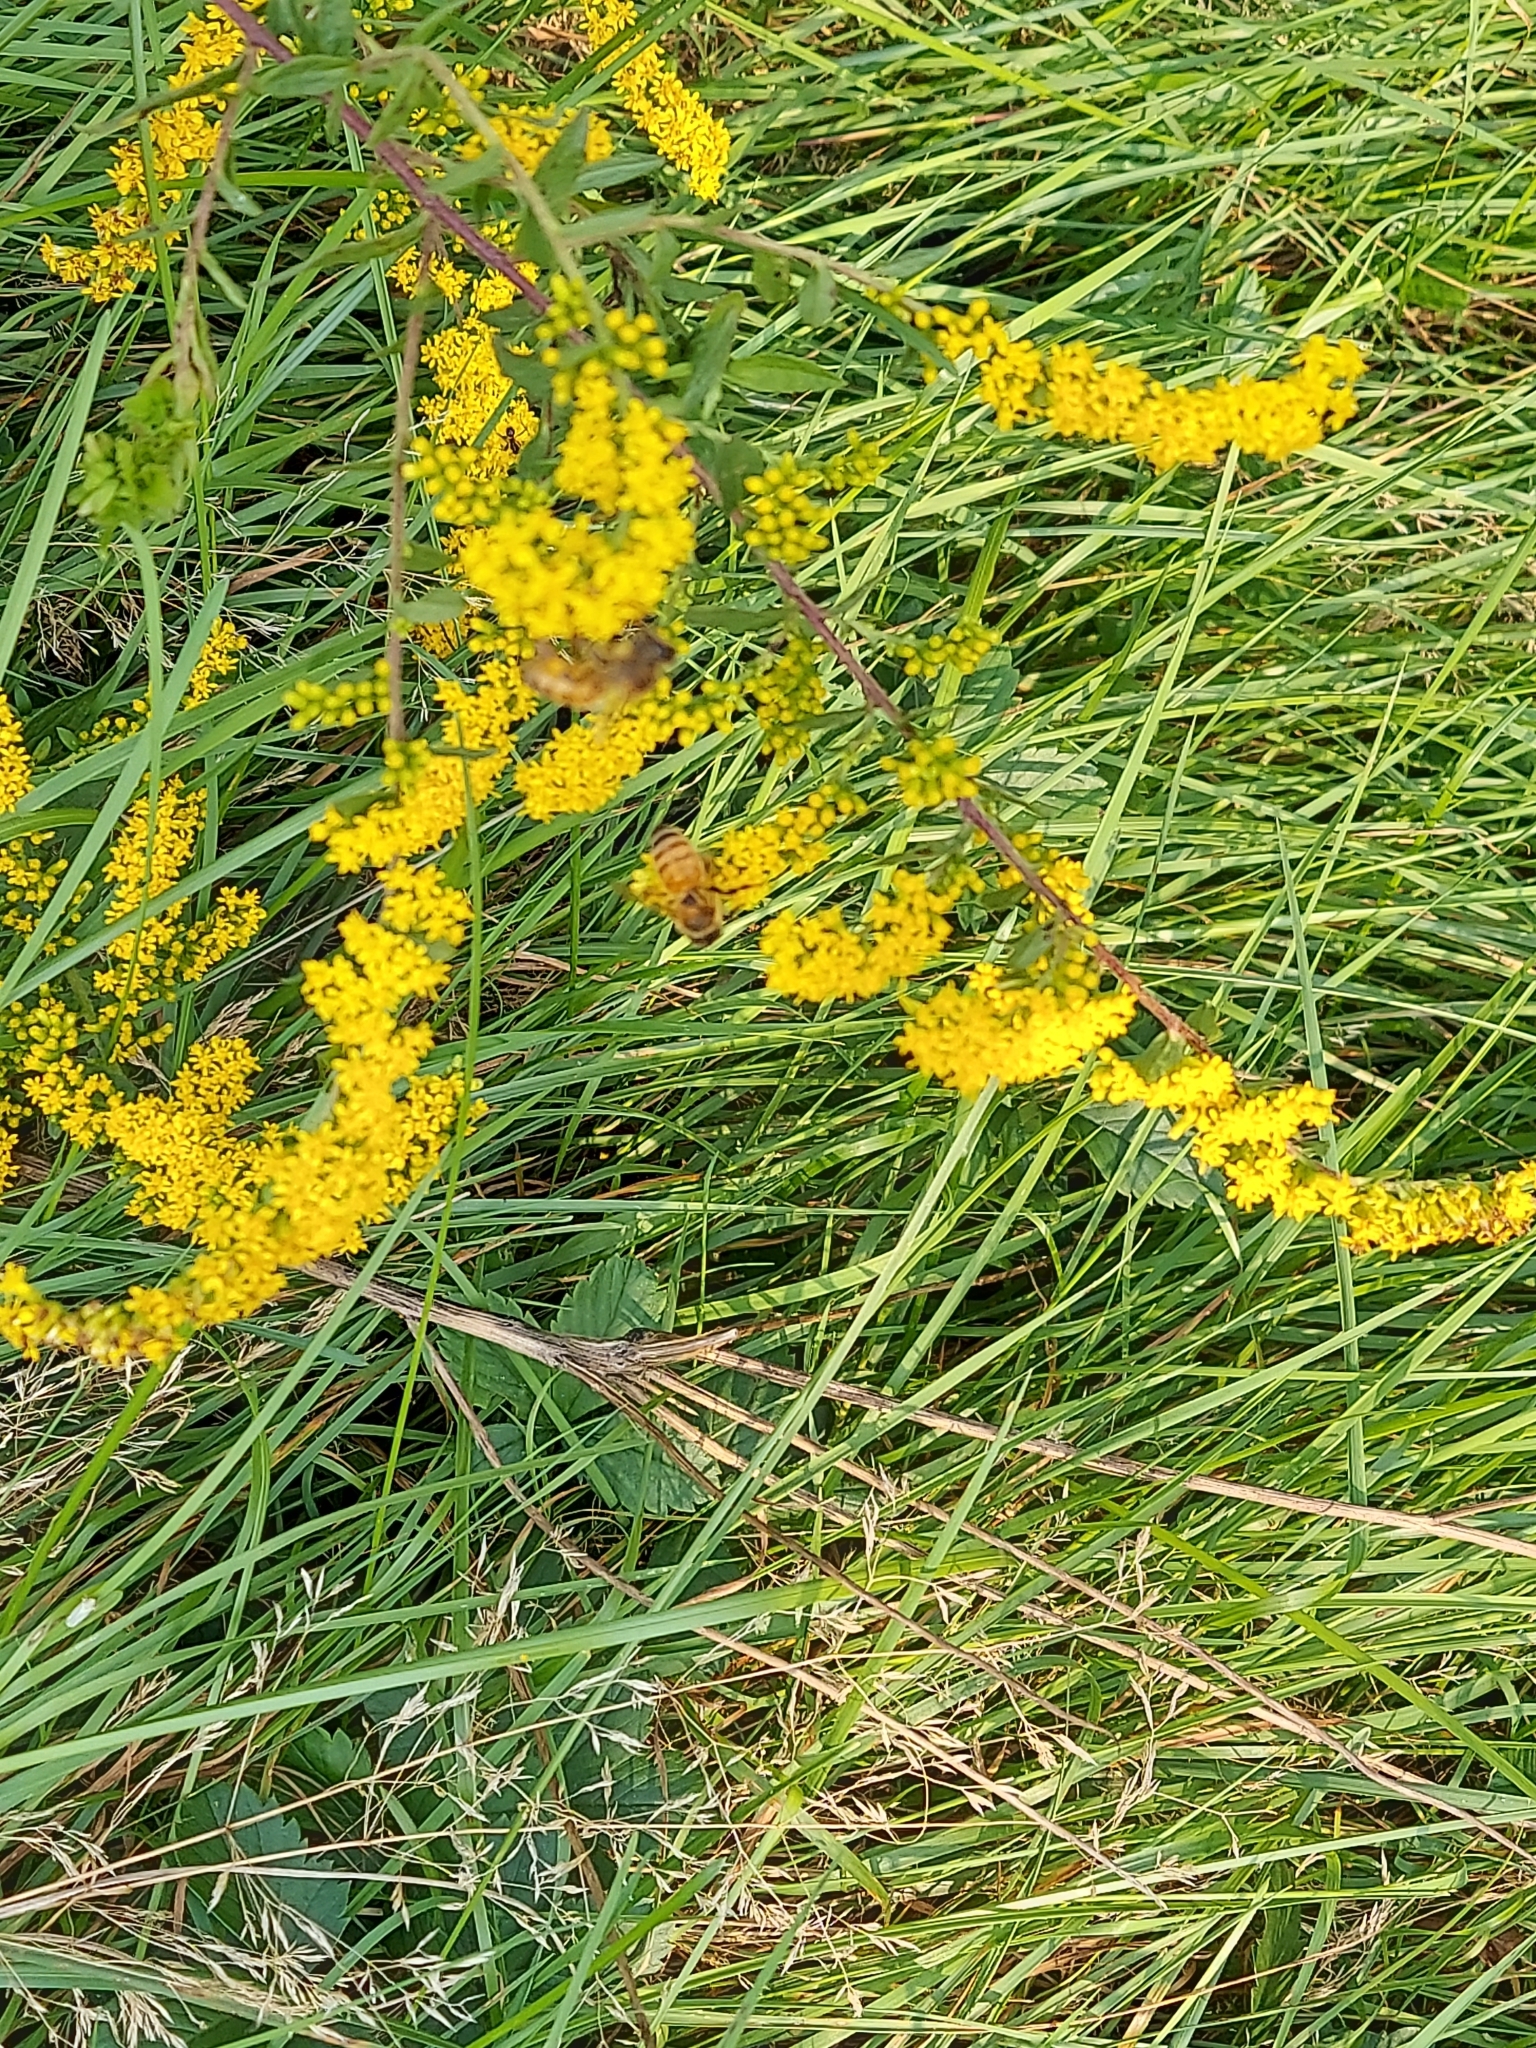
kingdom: Animalia
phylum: Arthropoda
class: Insecta
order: Hymenoptera
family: Apidae
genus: Apis
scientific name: Apis mellifera
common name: Honey bee
